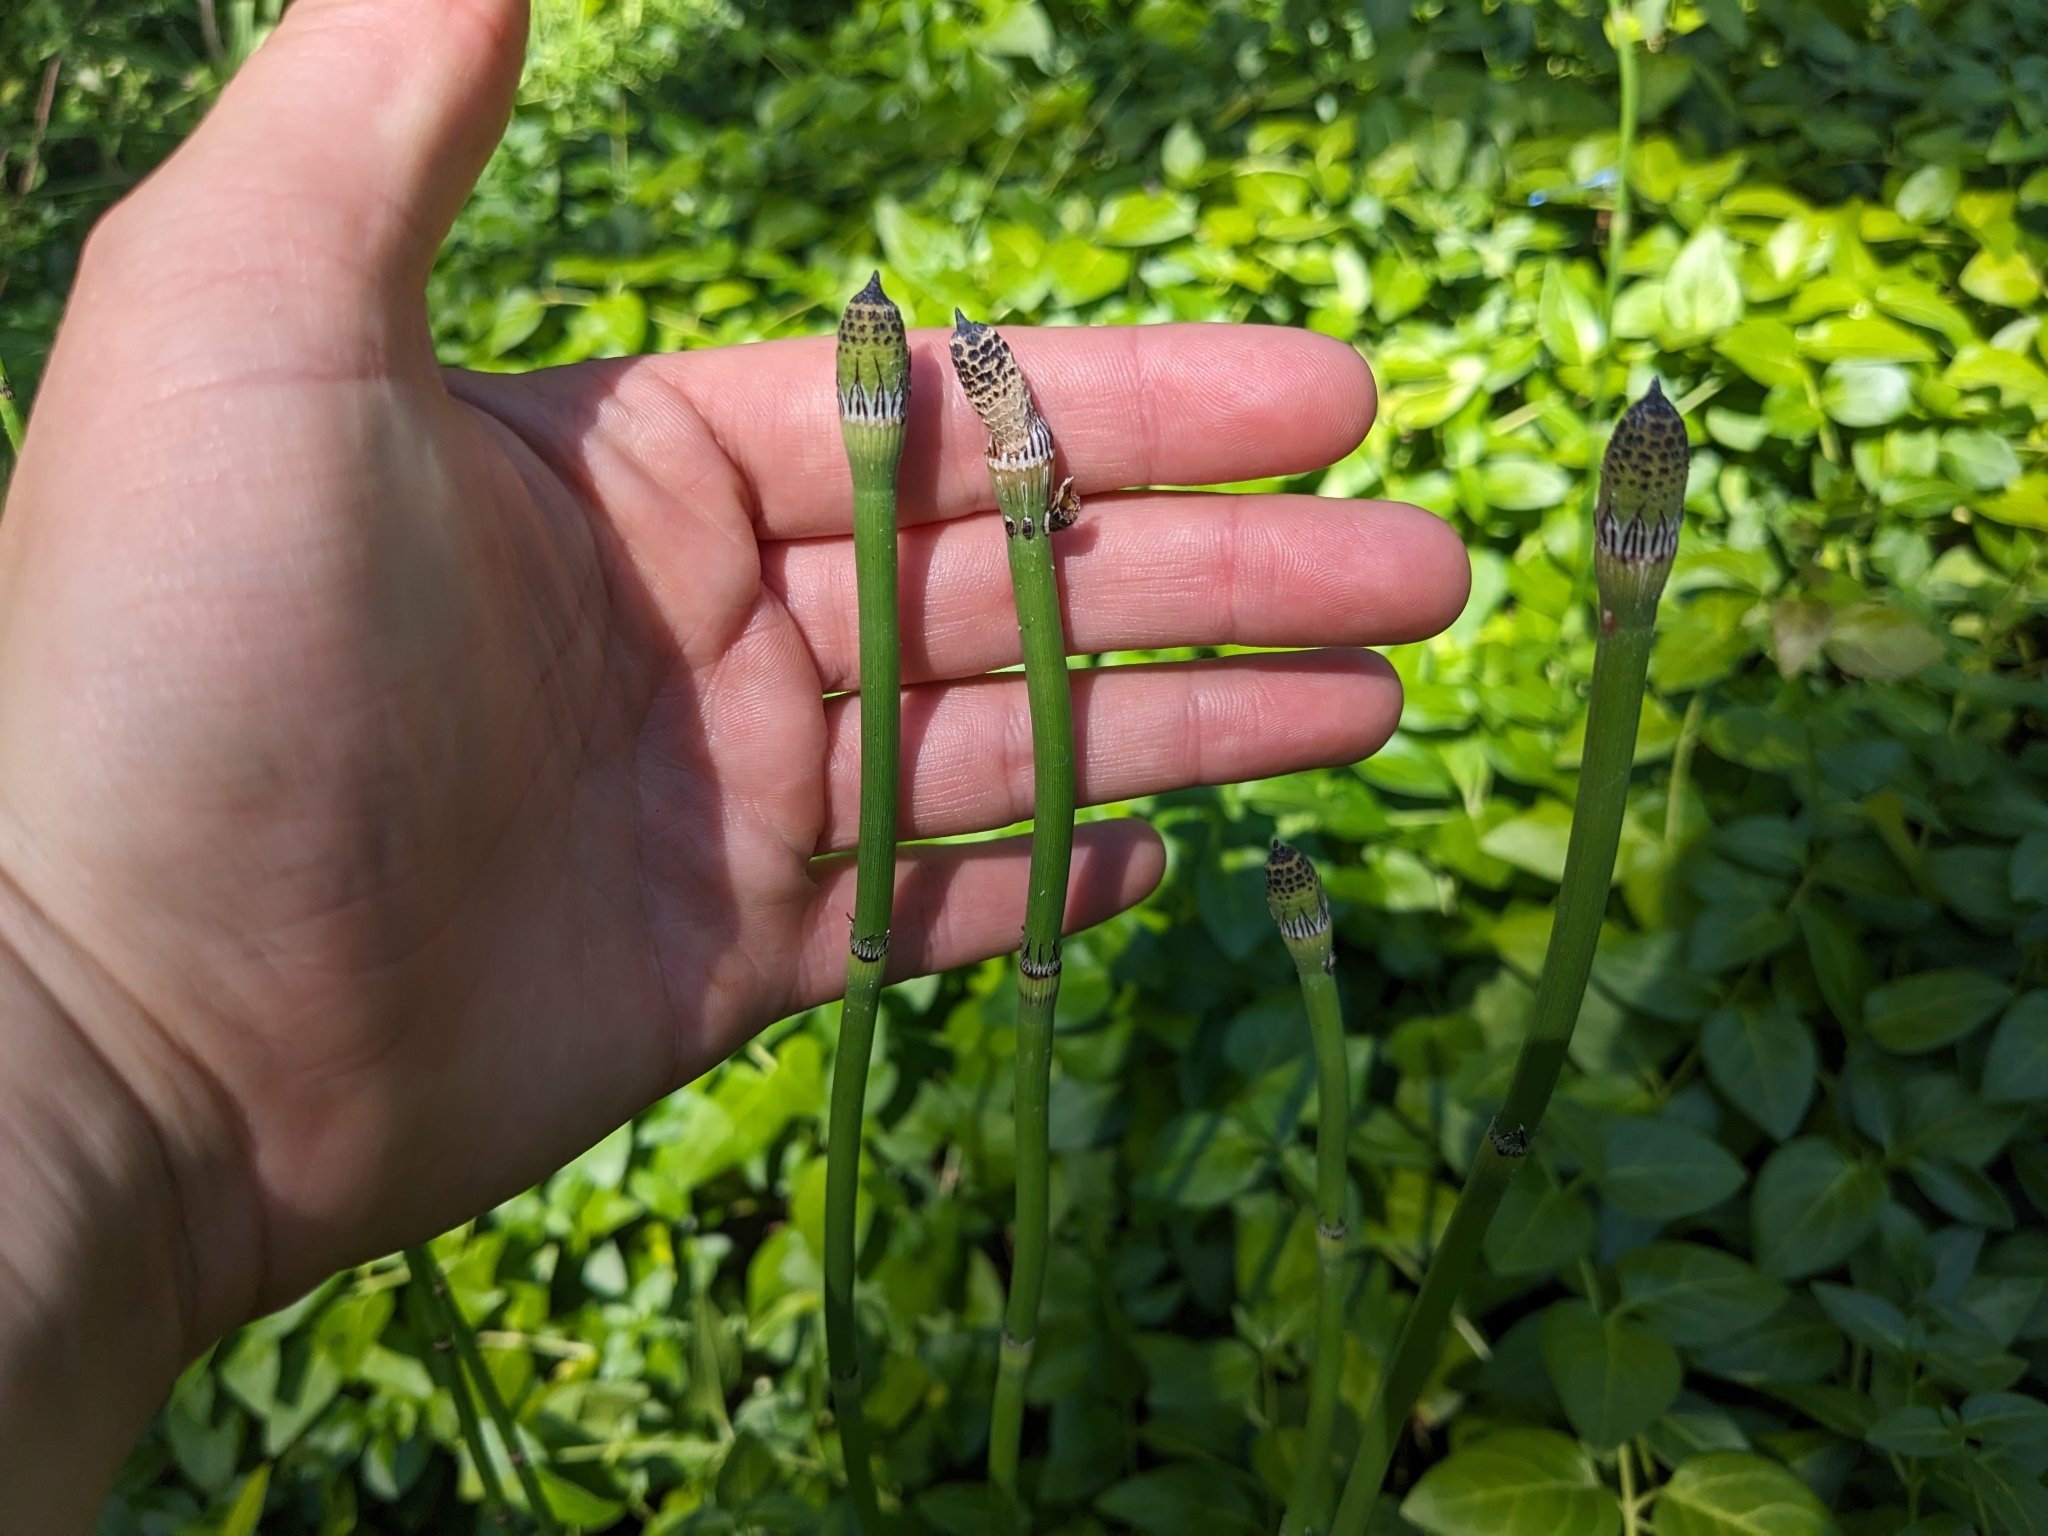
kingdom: Plantae
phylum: Tracheophyta
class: Polypodiopsida
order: Equisetales
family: Equisetaceae
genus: Equisetum
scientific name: Equisetum ferrissii
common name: Ferriss' horsetail
